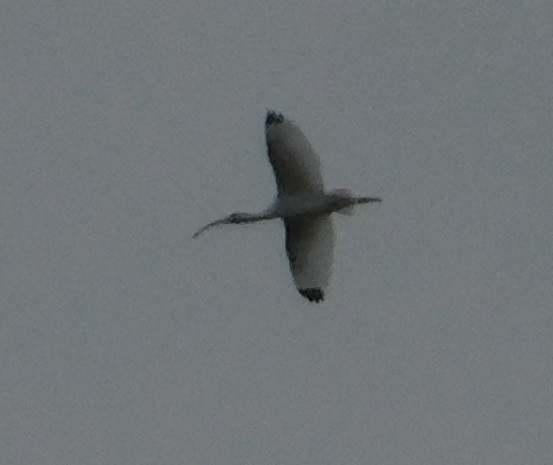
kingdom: Animalia
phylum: Chordata
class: Aves
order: Pelecaniformes
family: Threskiornithidae
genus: Eudocimus
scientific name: Eudocimus albus
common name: White ibis
